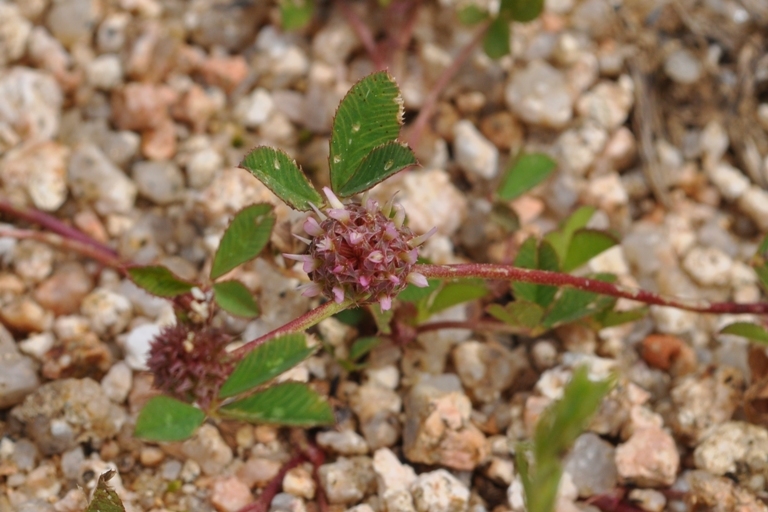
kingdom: Plantae
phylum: Tracheophyta
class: Magnoliopsida
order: Fabales
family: Fabaceae
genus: Trifolium
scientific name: Trifolium glomeratum
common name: Clustered clover
